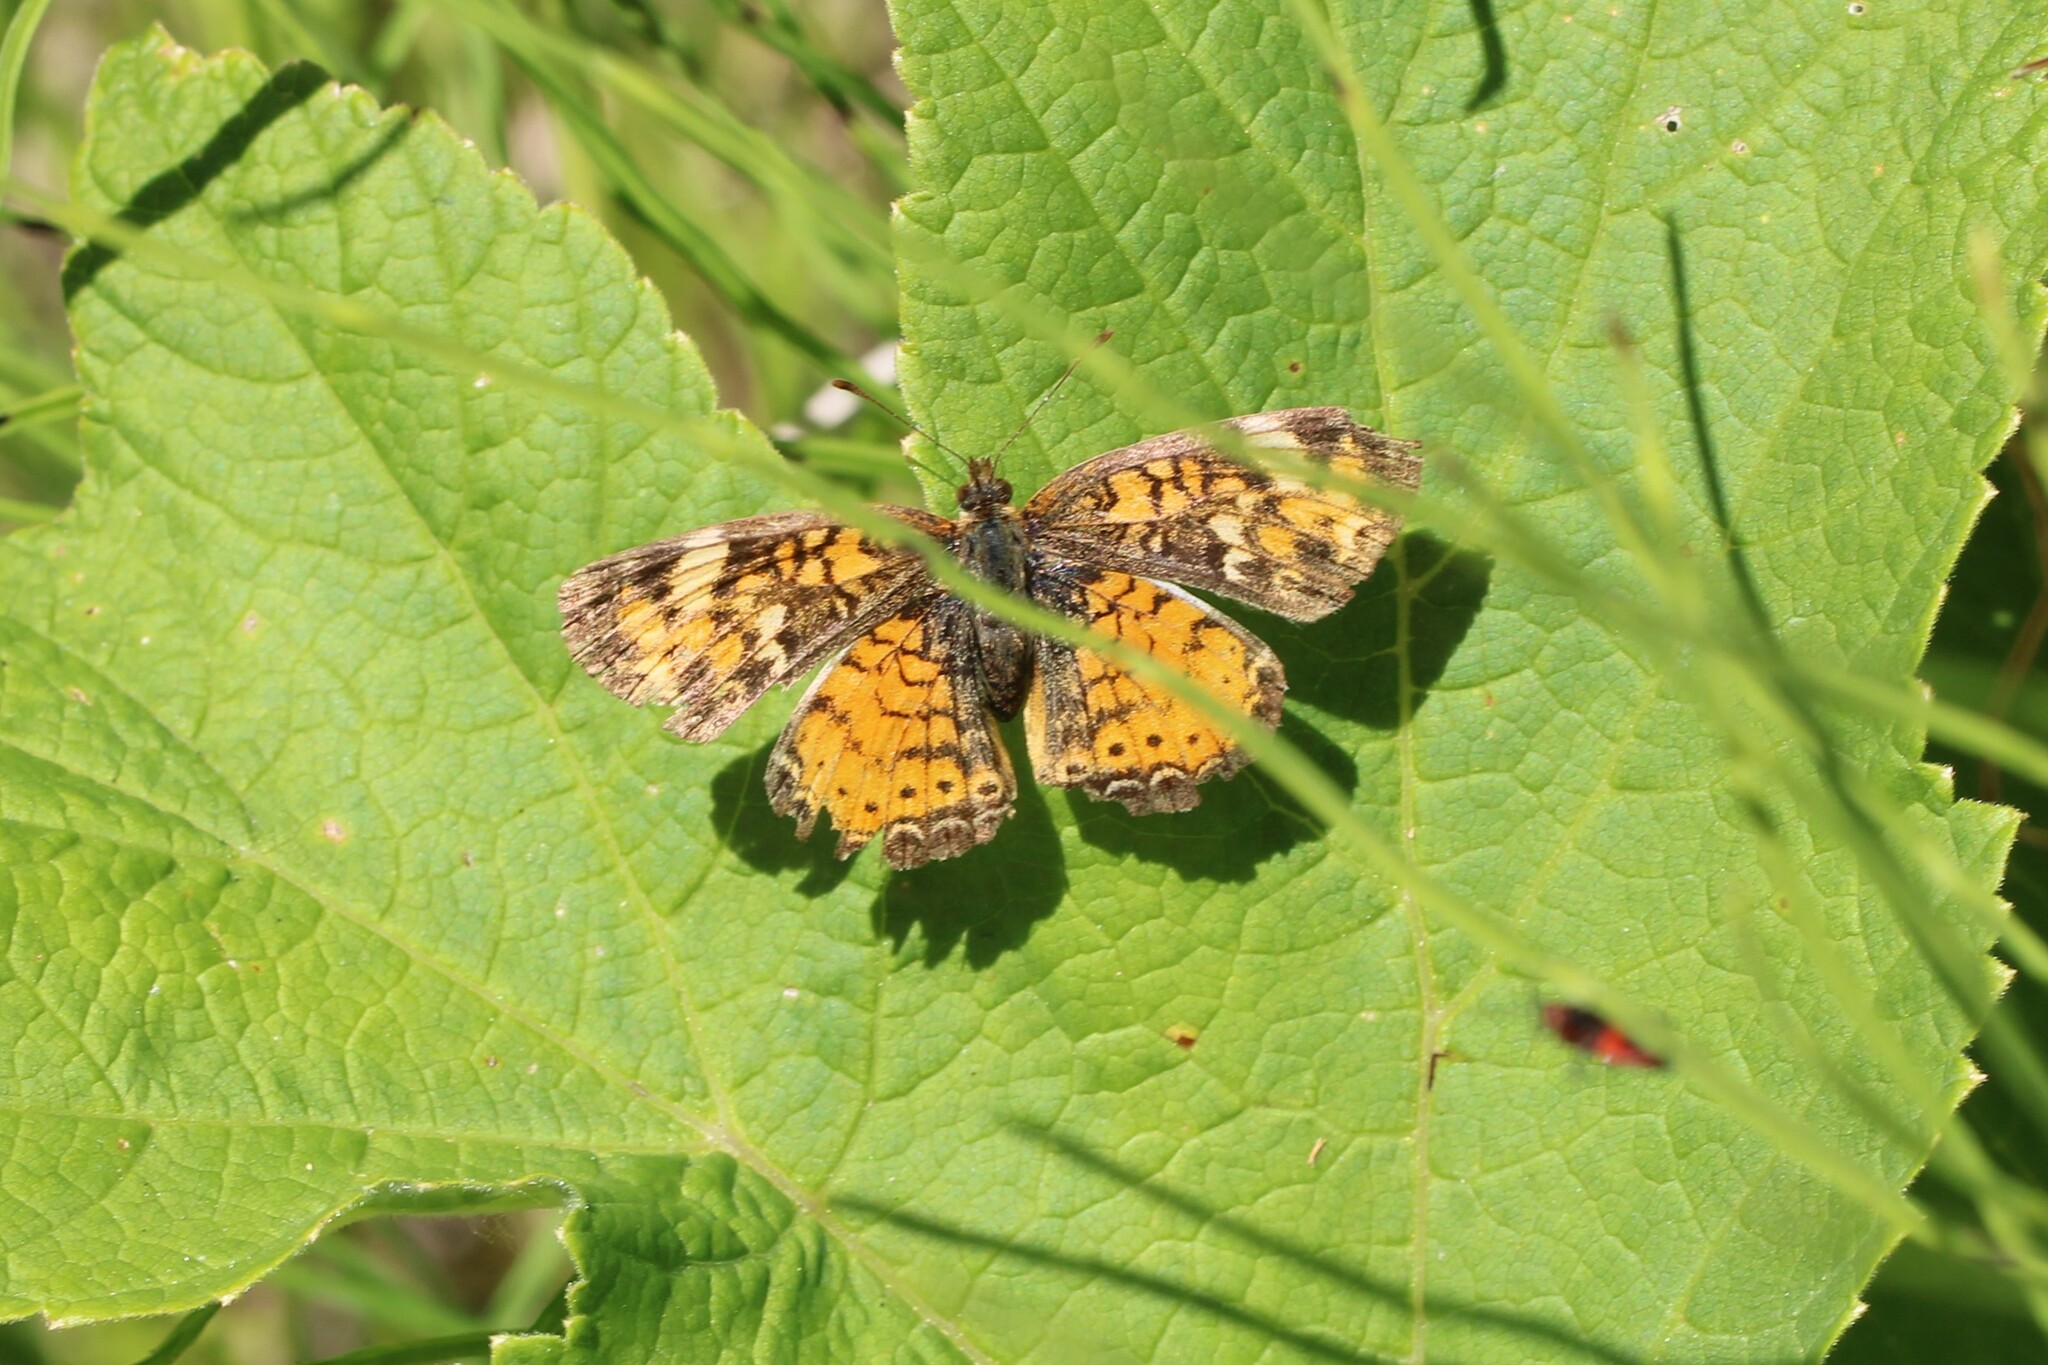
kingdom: Animalia
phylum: Arthropoda
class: Insecta
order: Lepidoptera
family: Nymphalidae
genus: Phyciodes
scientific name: Phyciodes tharos
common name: Pearl crescent
